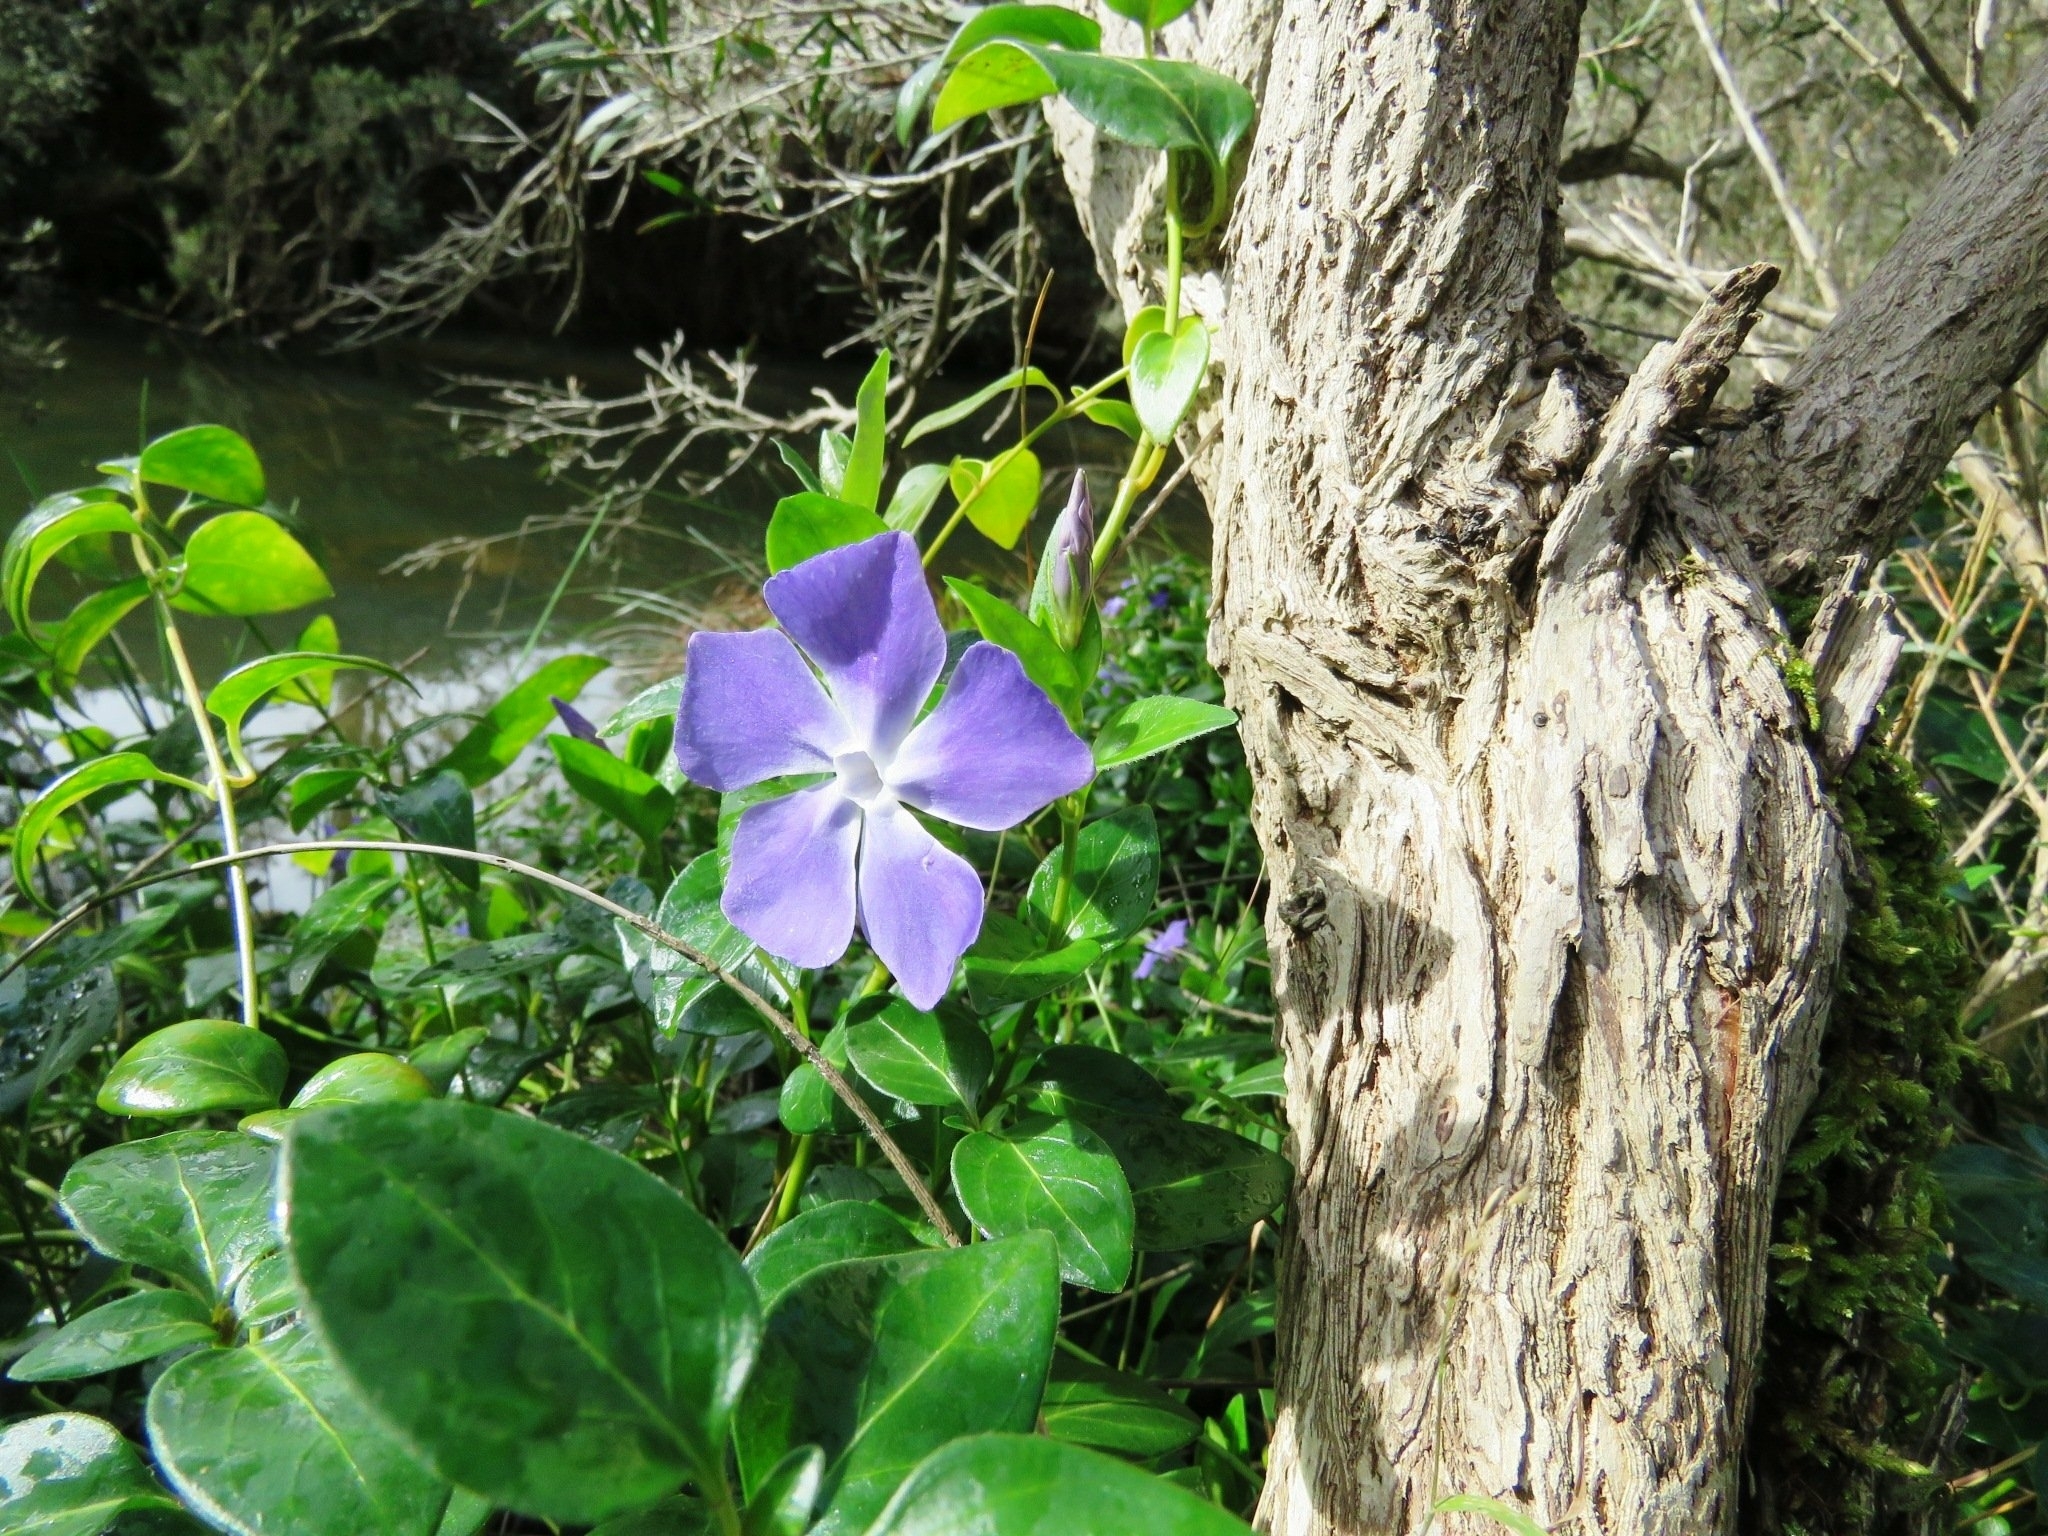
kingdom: Plantae
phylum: Tracheophyta
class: Magnoliopsida
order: Gentianales
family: Apocynaceae
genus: Vinca
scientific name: Vinca major
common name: Greater periwinkle
